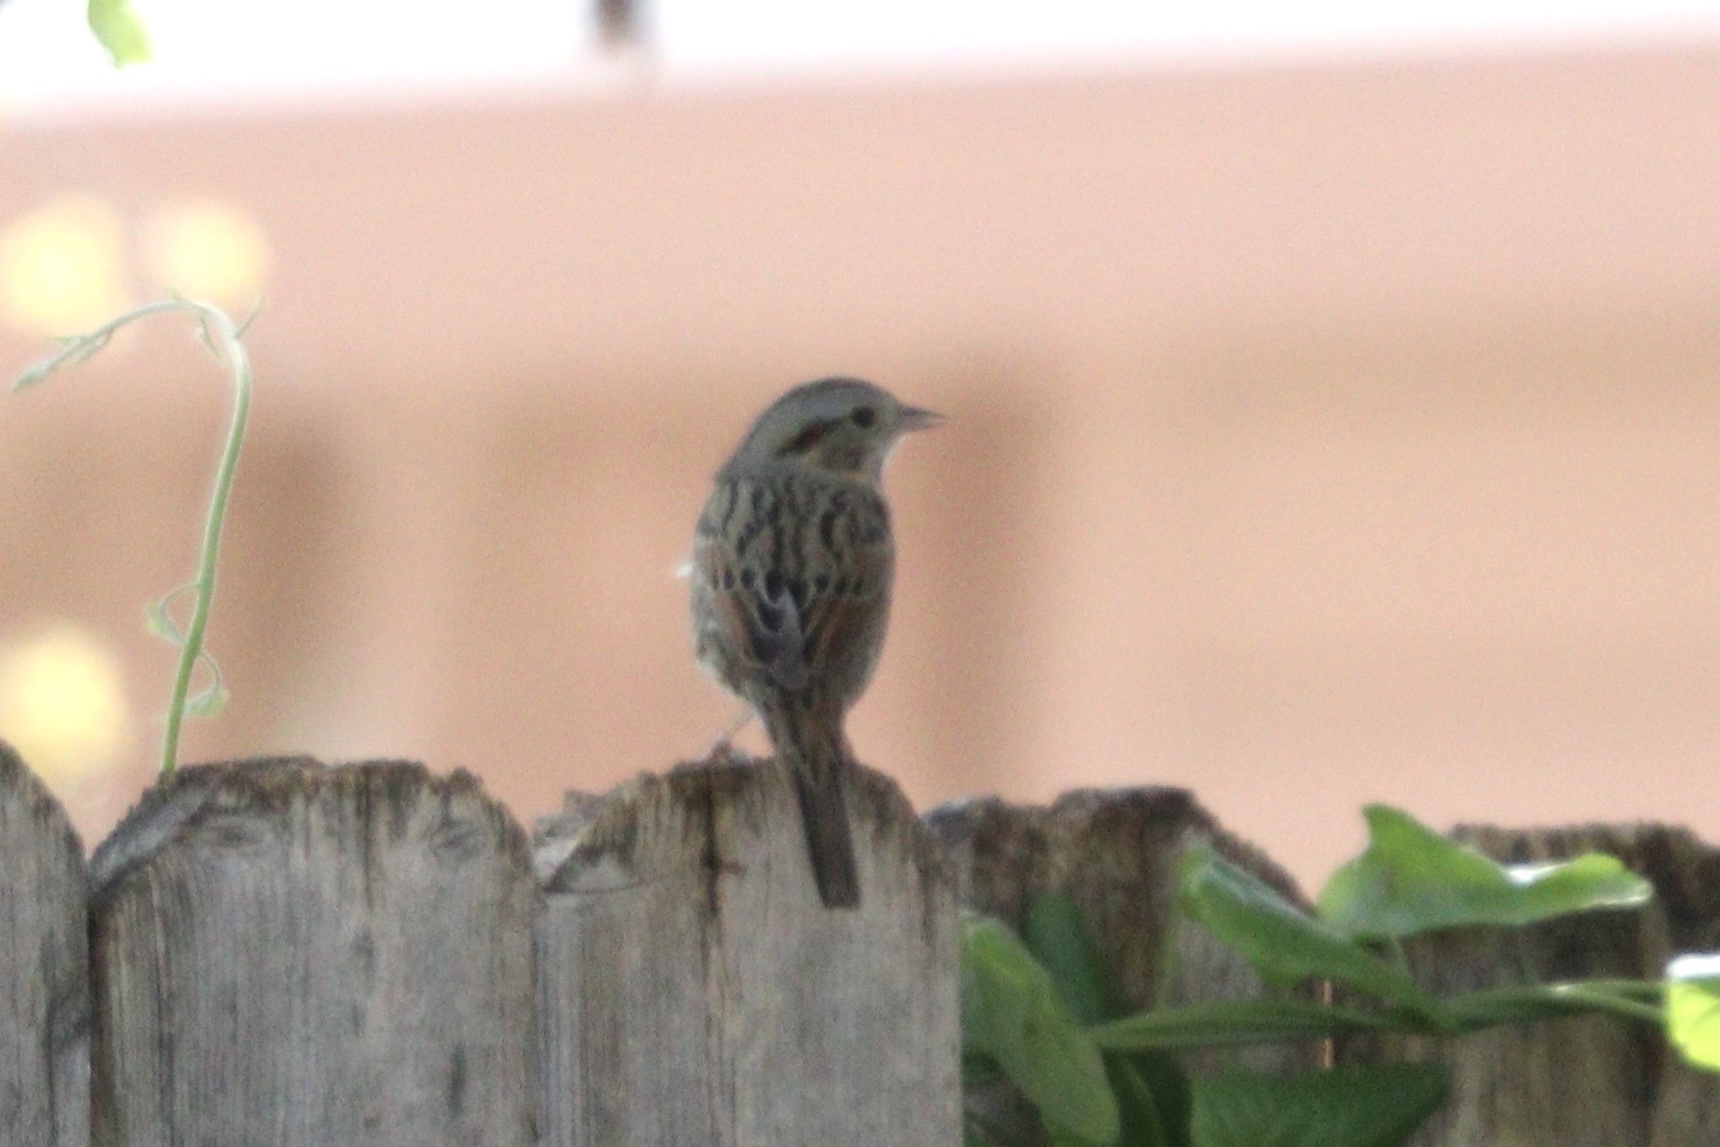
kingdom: Animalia
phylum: Chordata
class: Aves
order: Passeriformes
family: Passerellidae
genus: Melospiza
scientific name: Melospiza lincolnii
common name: Lincoln's sparrow
